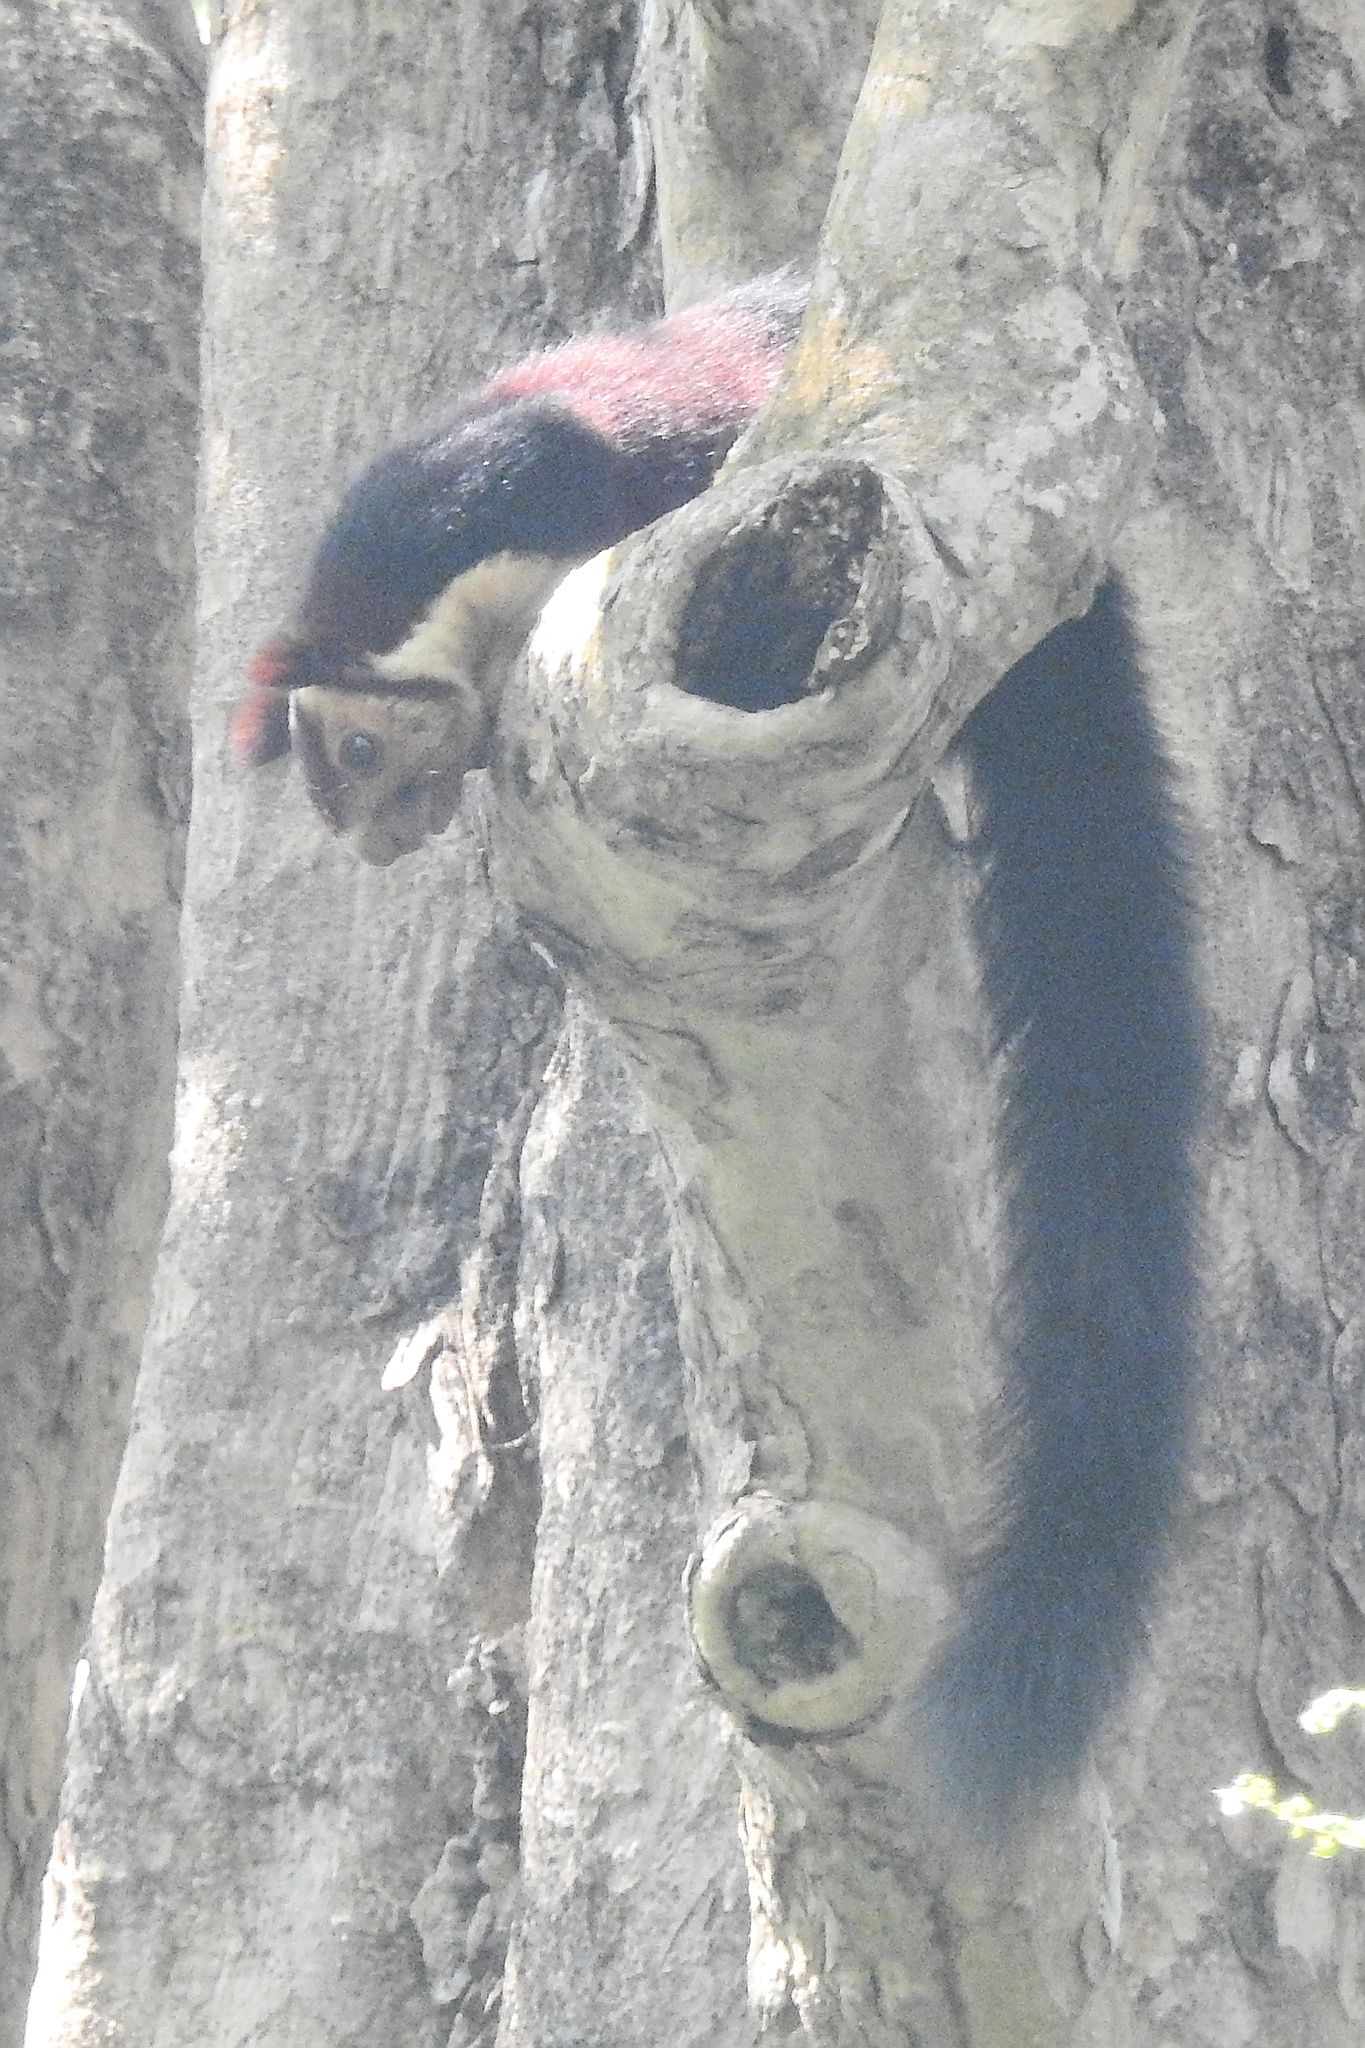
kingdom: Animalia
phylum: Chordata
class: Mammalia
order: Rodentia
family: Sciuridae
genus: Ratufa
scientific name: Ratufa indica
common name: Indian giant squirrel
